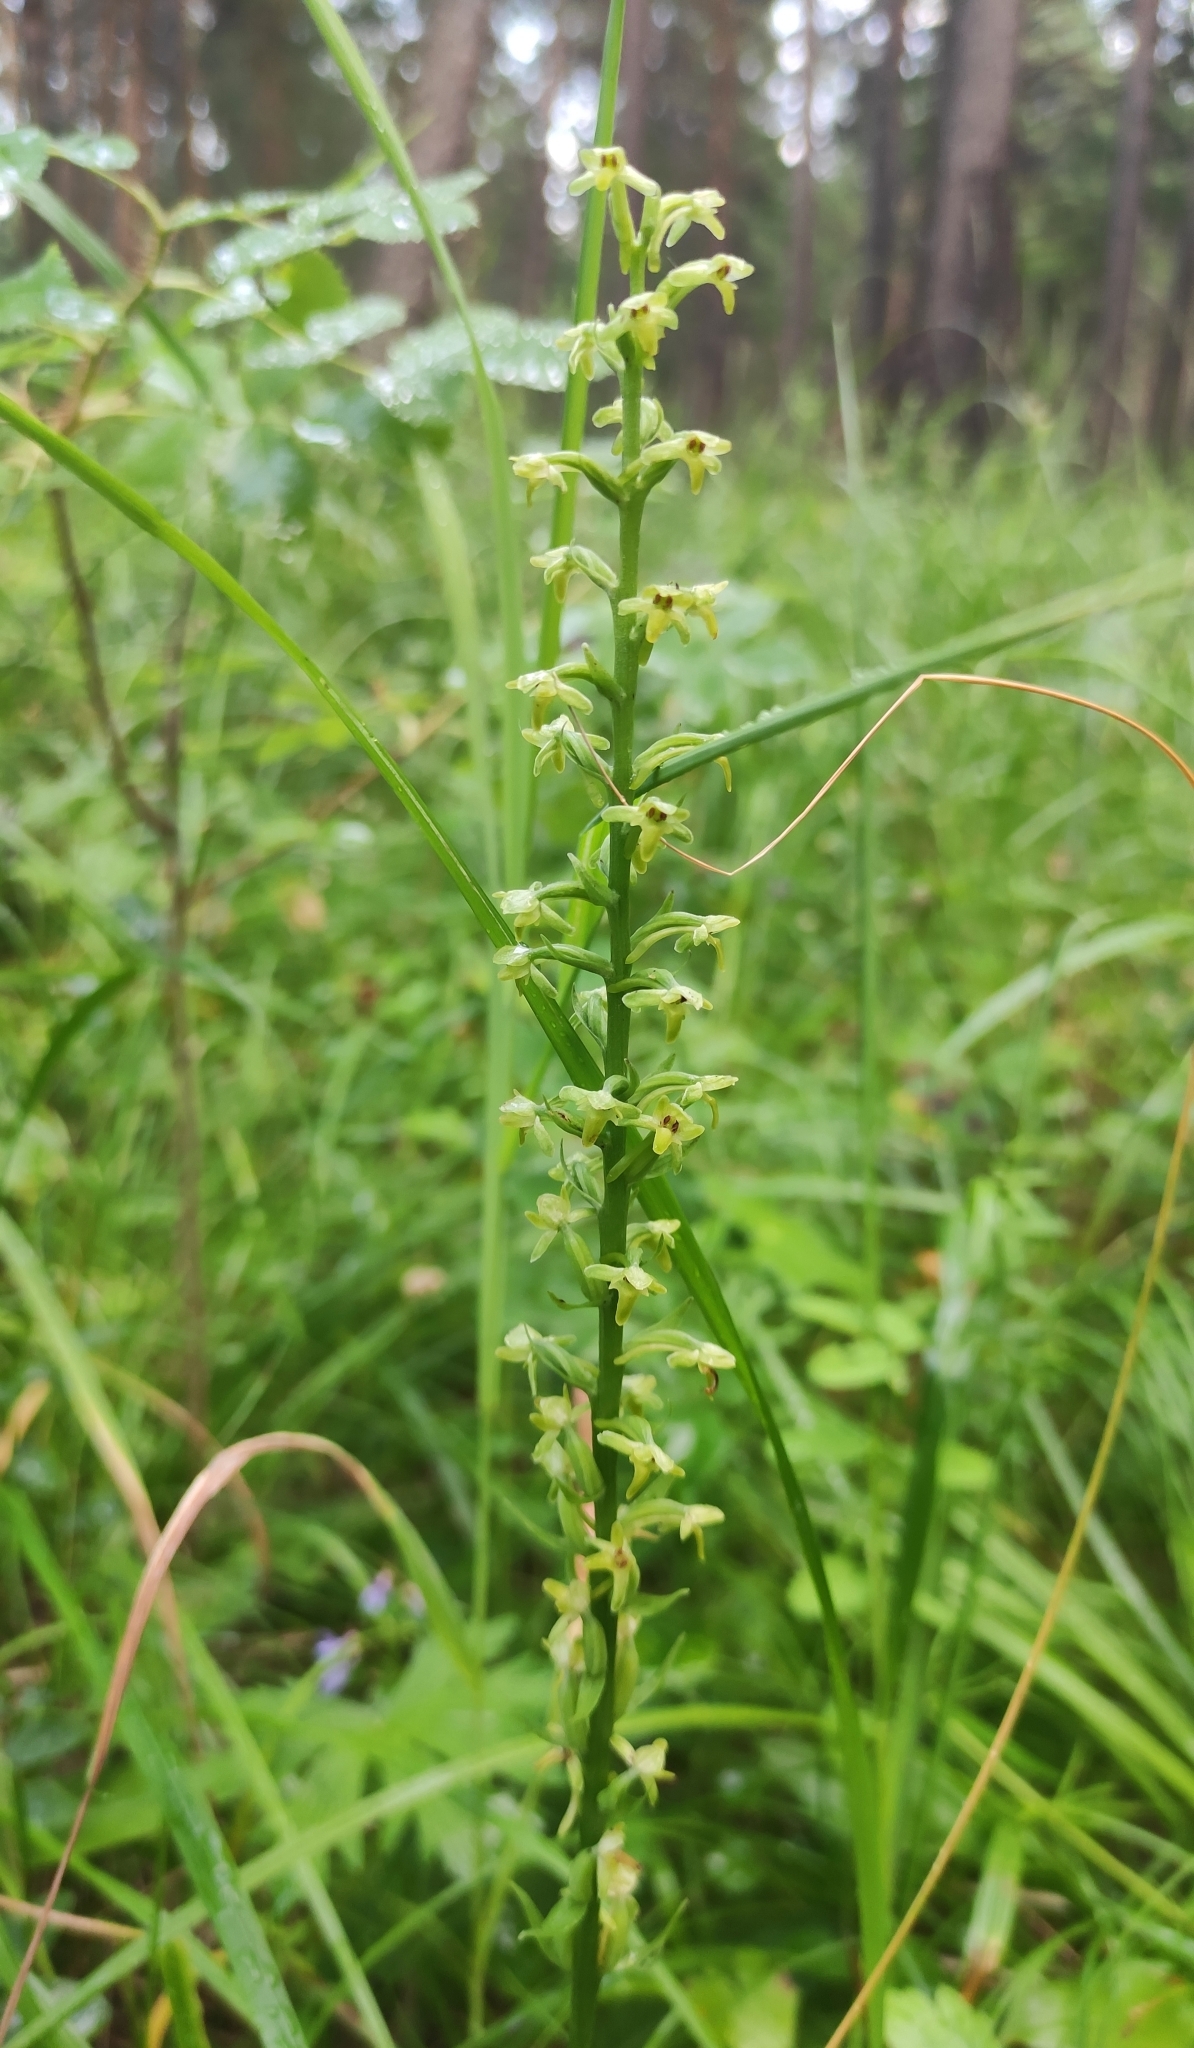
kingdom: Plantae
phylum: Tracheophyta
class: Liliopsida
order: Asparagales
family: Orchidaceae
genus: Platanthera
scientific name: Platanthera fuscescens
